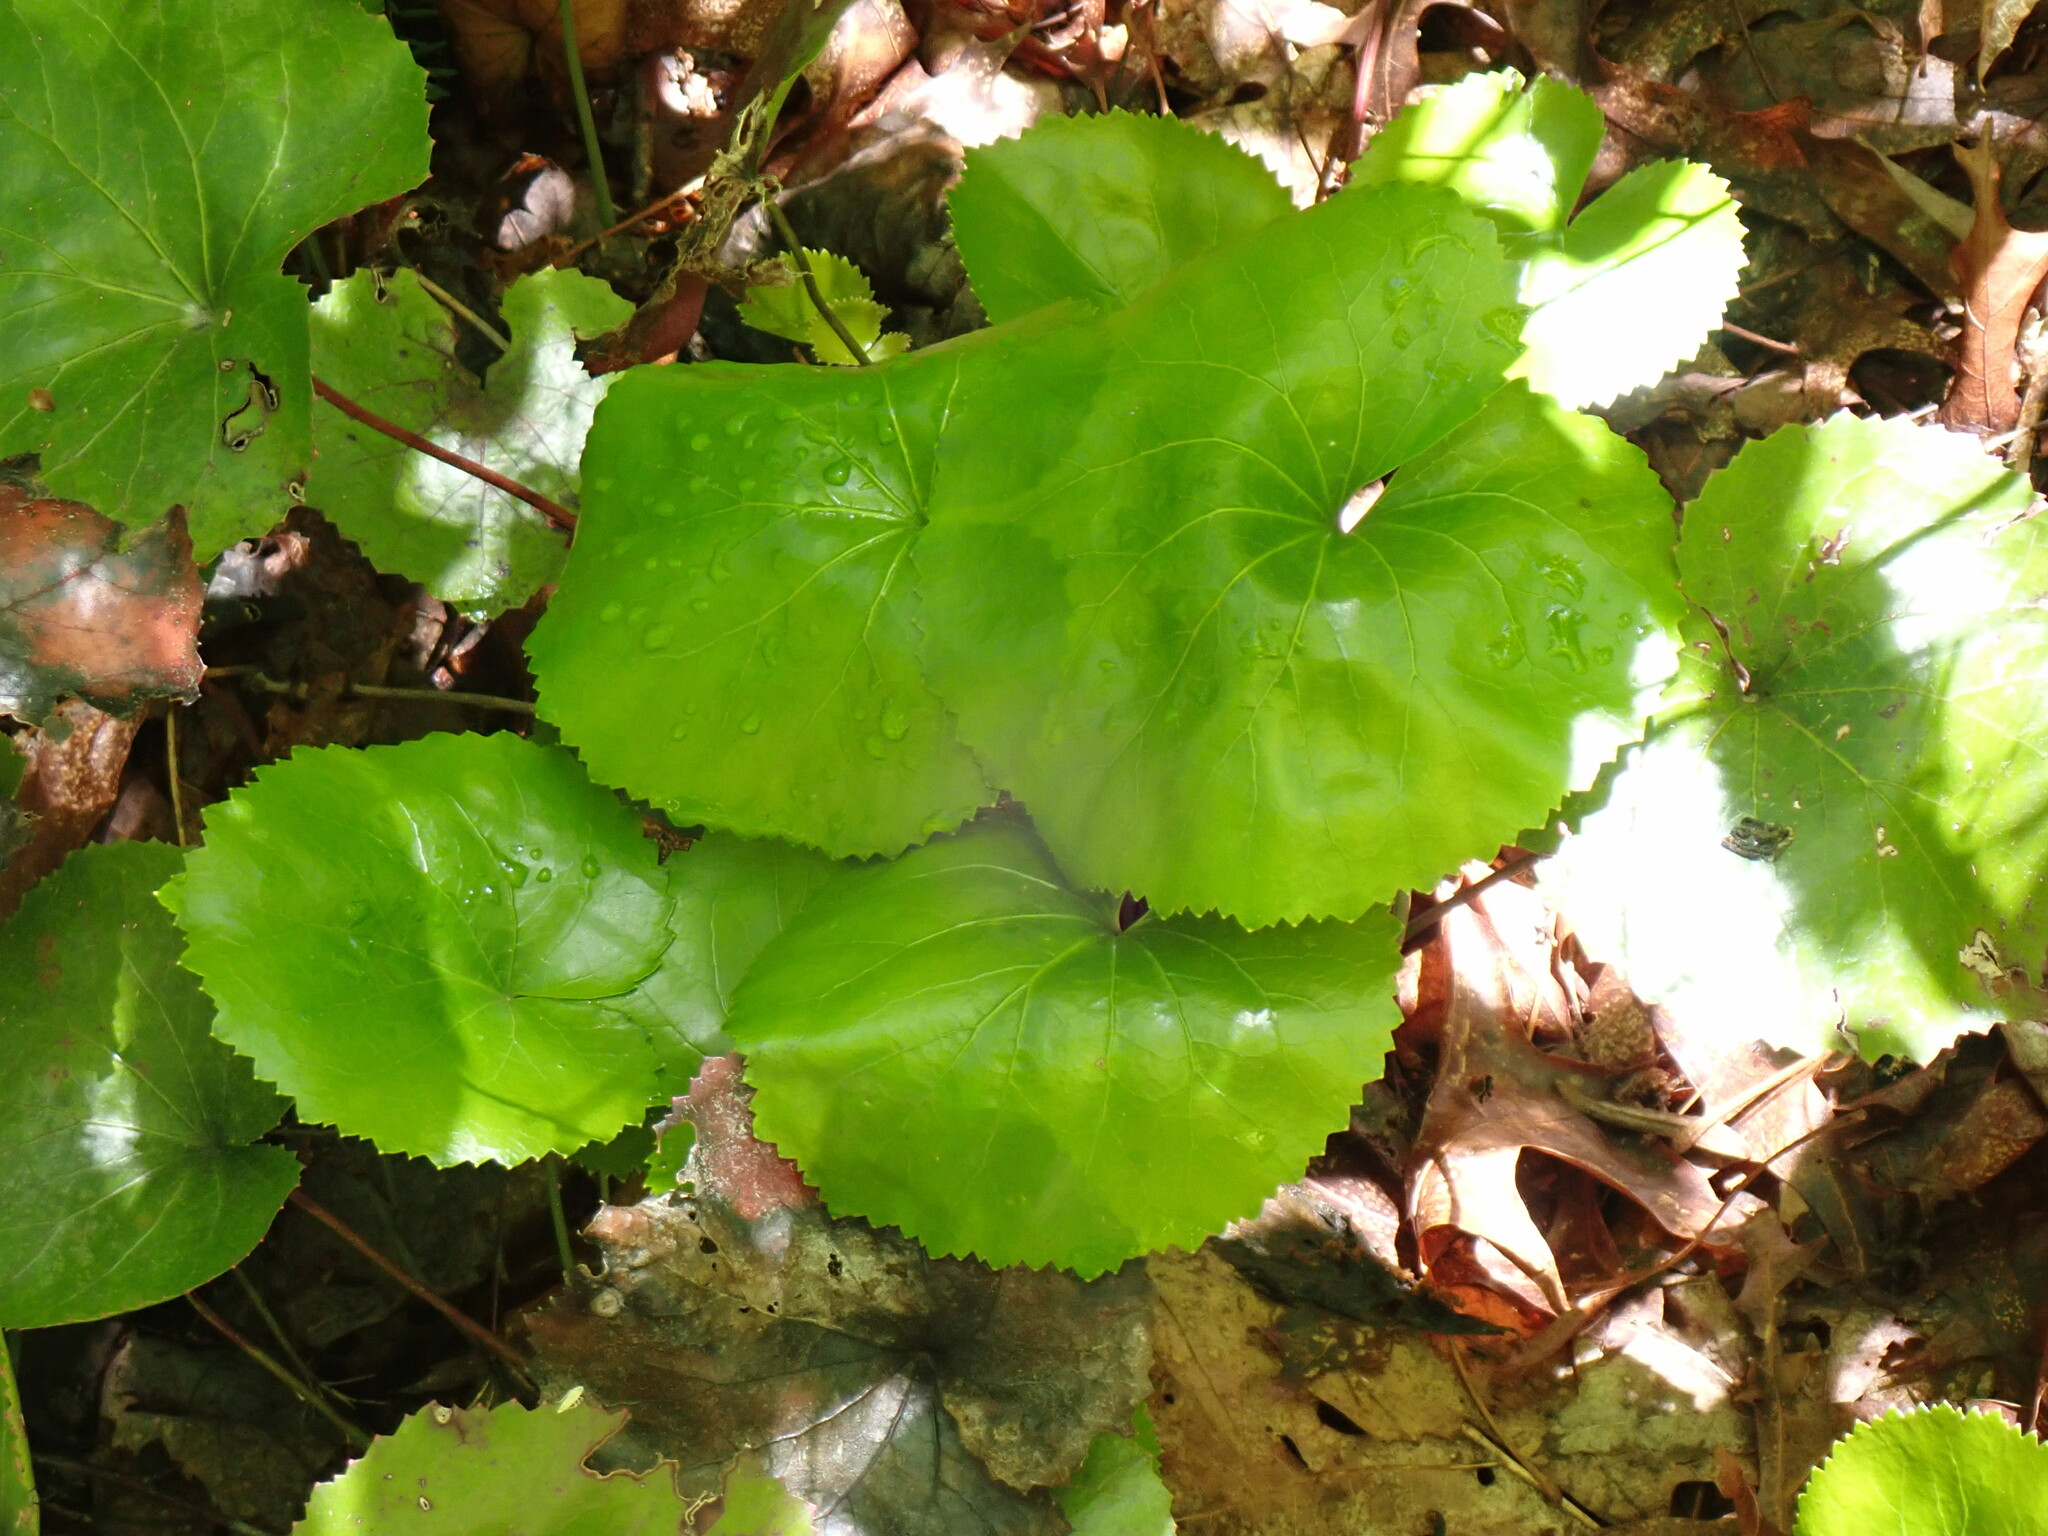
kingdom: Plantae
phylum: Tracheophyta
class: Magnoliopsida
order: Ericales
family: Diapensiaceae
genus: Galax
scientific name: Galax urceolata
